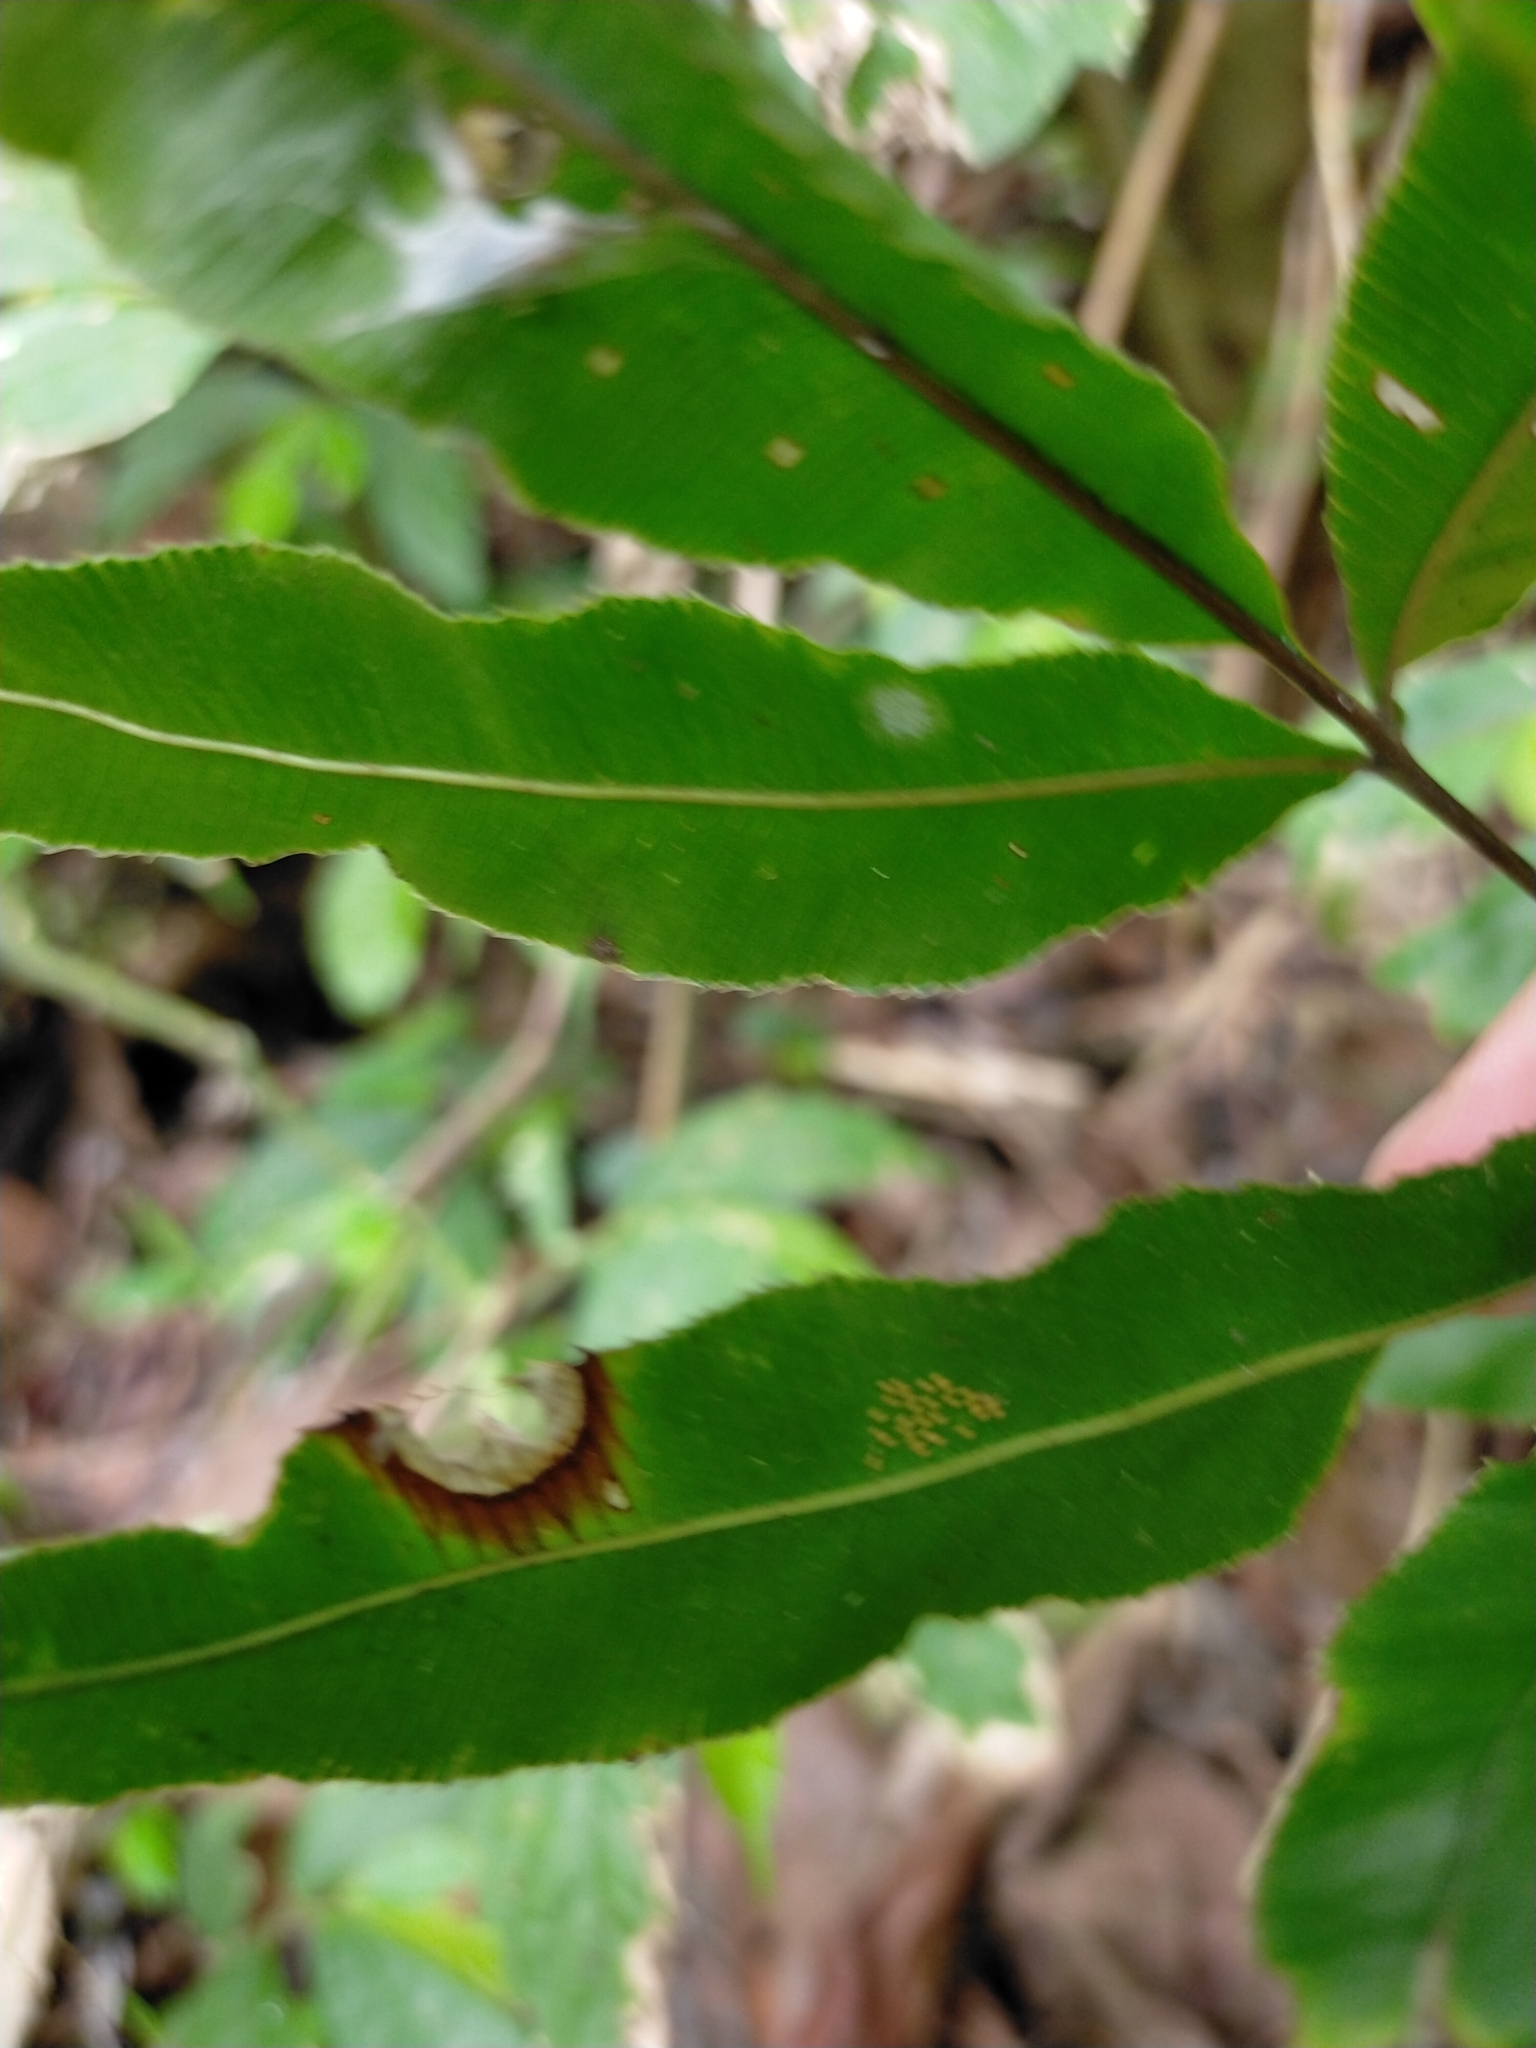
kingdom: Plantae
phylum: Tracheophyta
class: Polypodiopsida
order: Polypodiales
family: Pteridaceae
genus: Coniogramme
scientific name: Coniogramme intermedia
